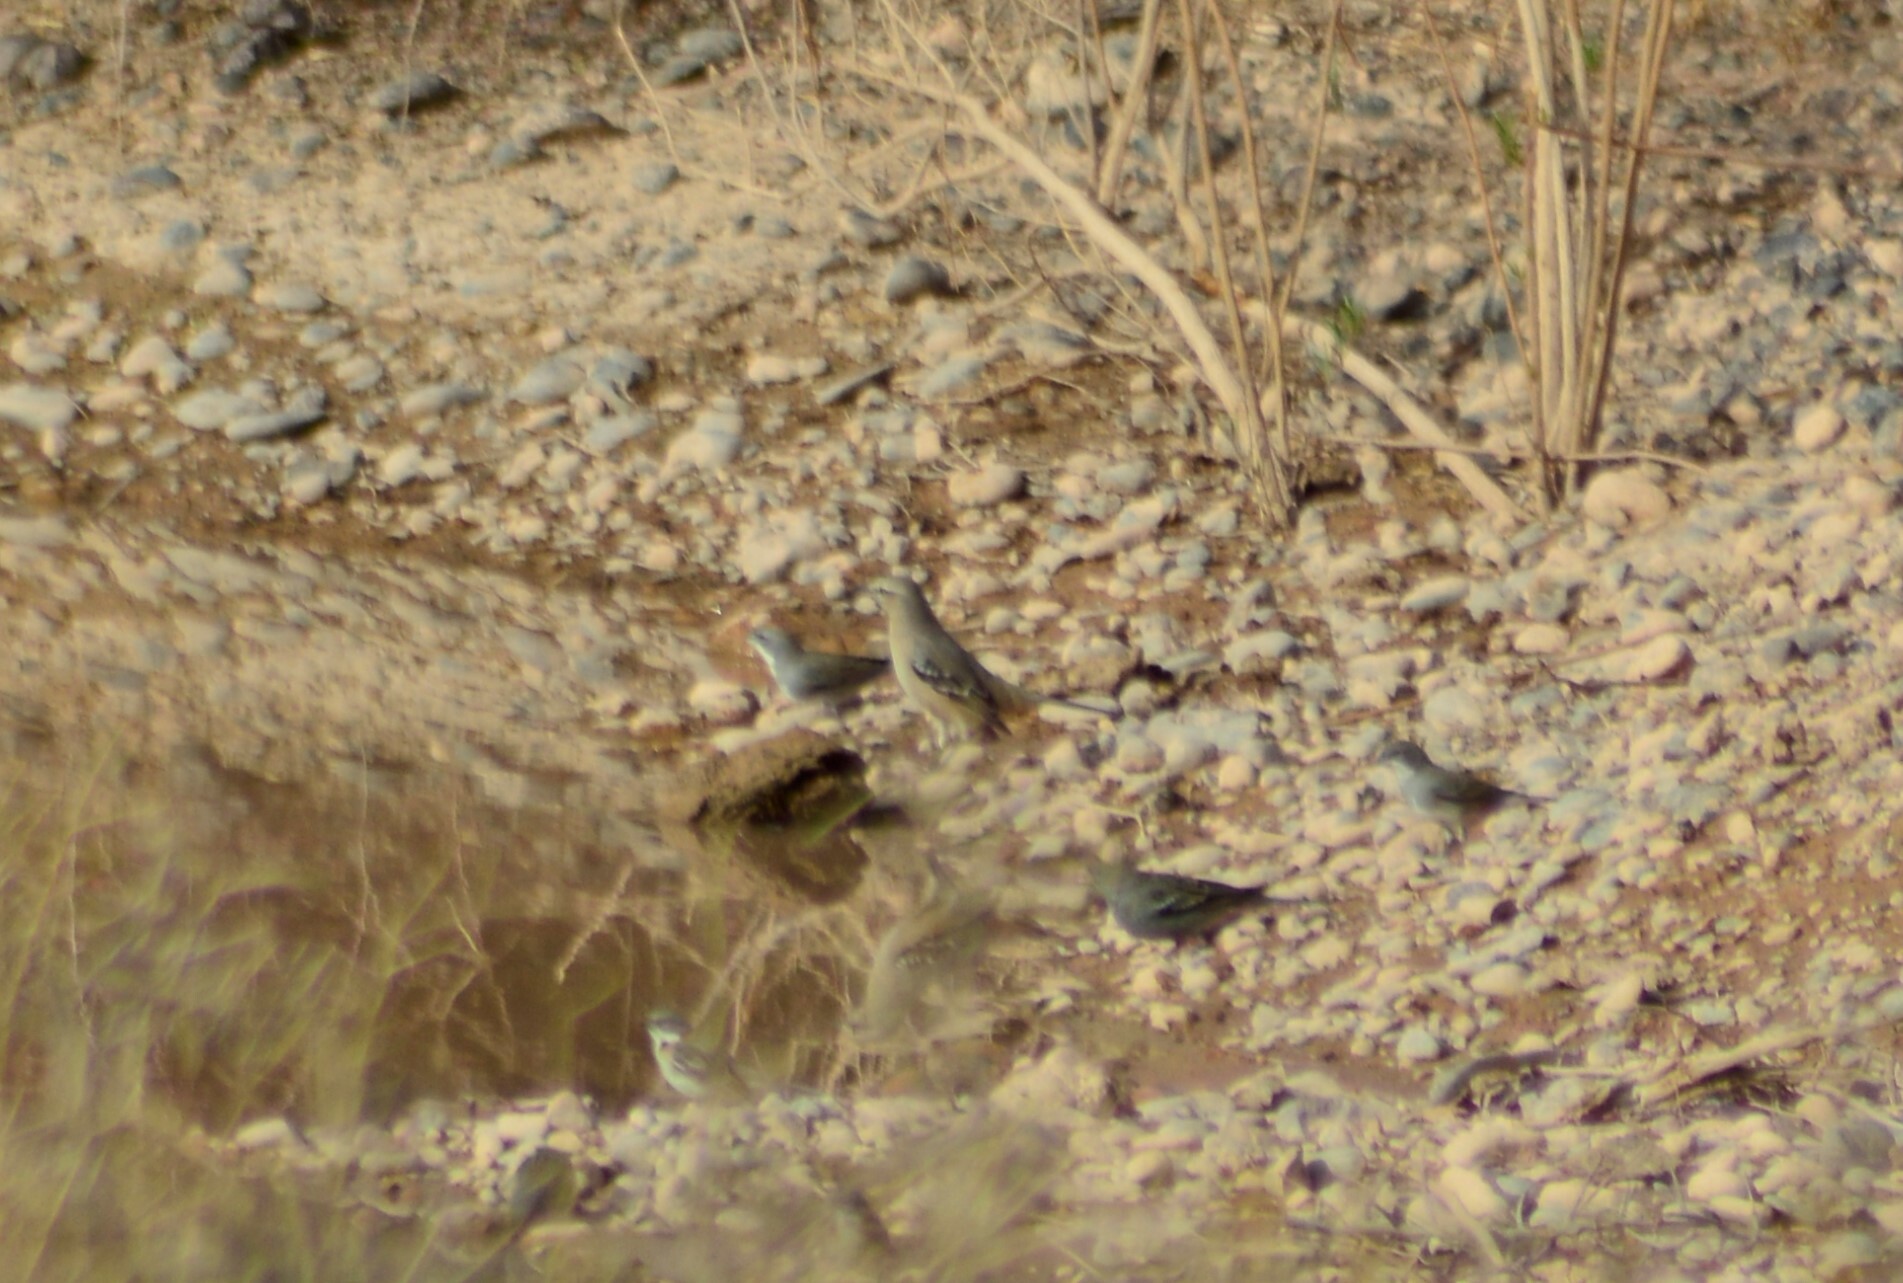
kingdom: Animalia
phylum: Chordata
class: Aves
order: Passeriformes
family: Thraupidae
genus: Diuca
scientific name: Diuca diuca
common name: Common diuca finch
